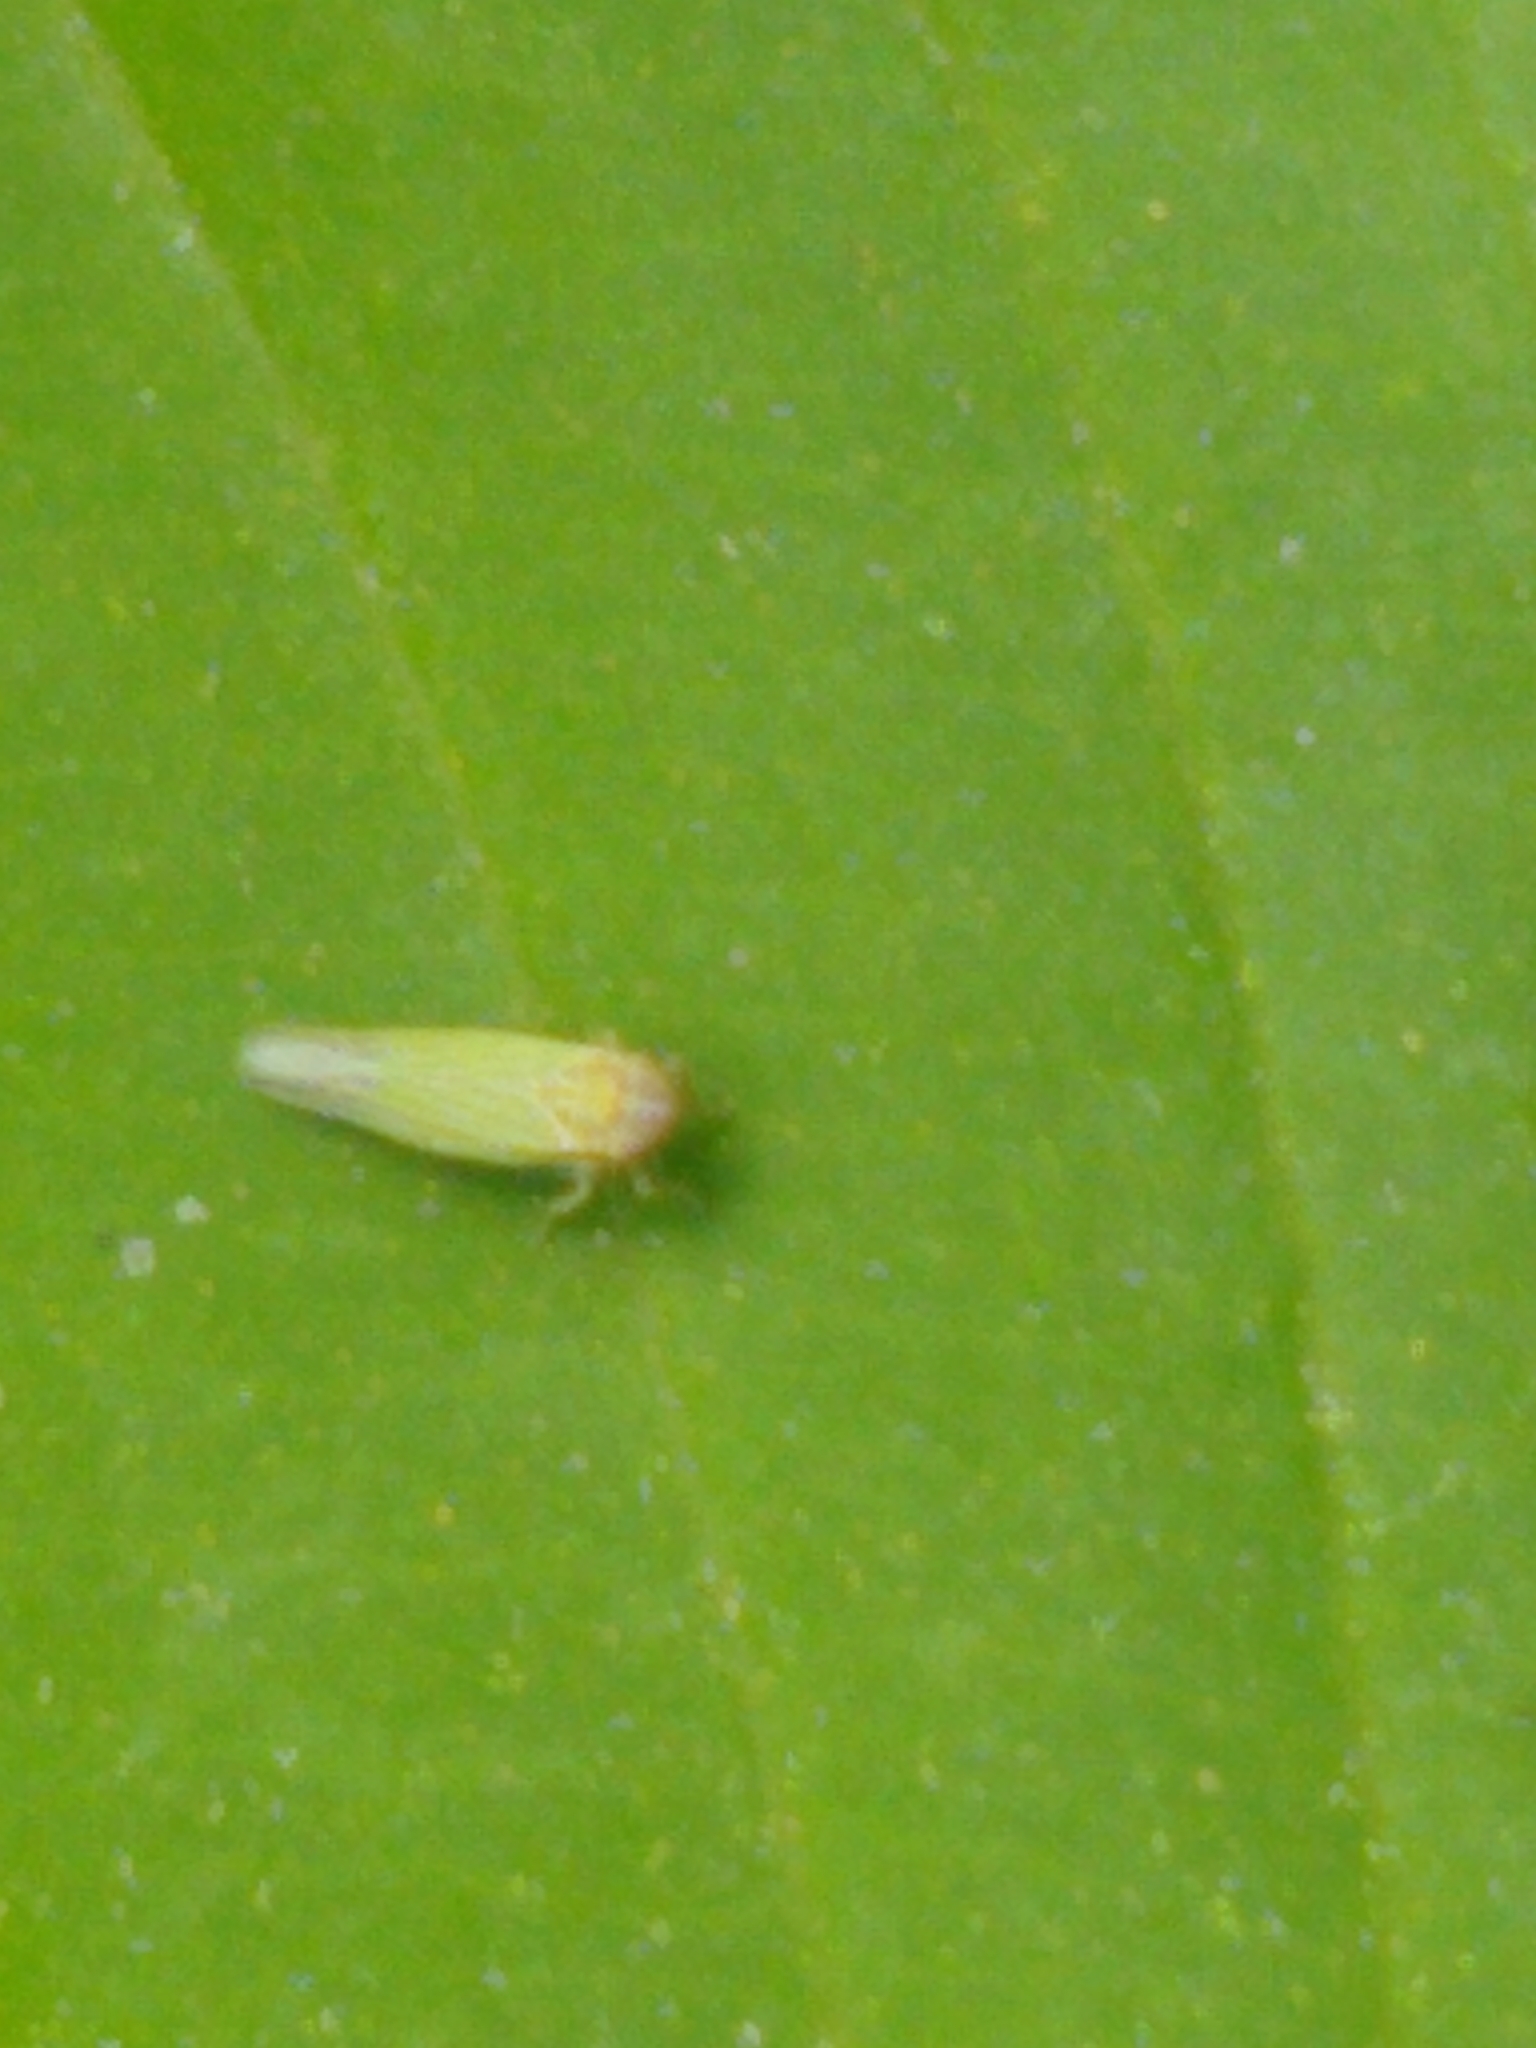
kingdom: Animalia
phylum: Arthropoda
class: Insecta
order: Hemiptera
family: Cicadellidae
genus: Dikraneura
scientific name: Dikraneura arizona
